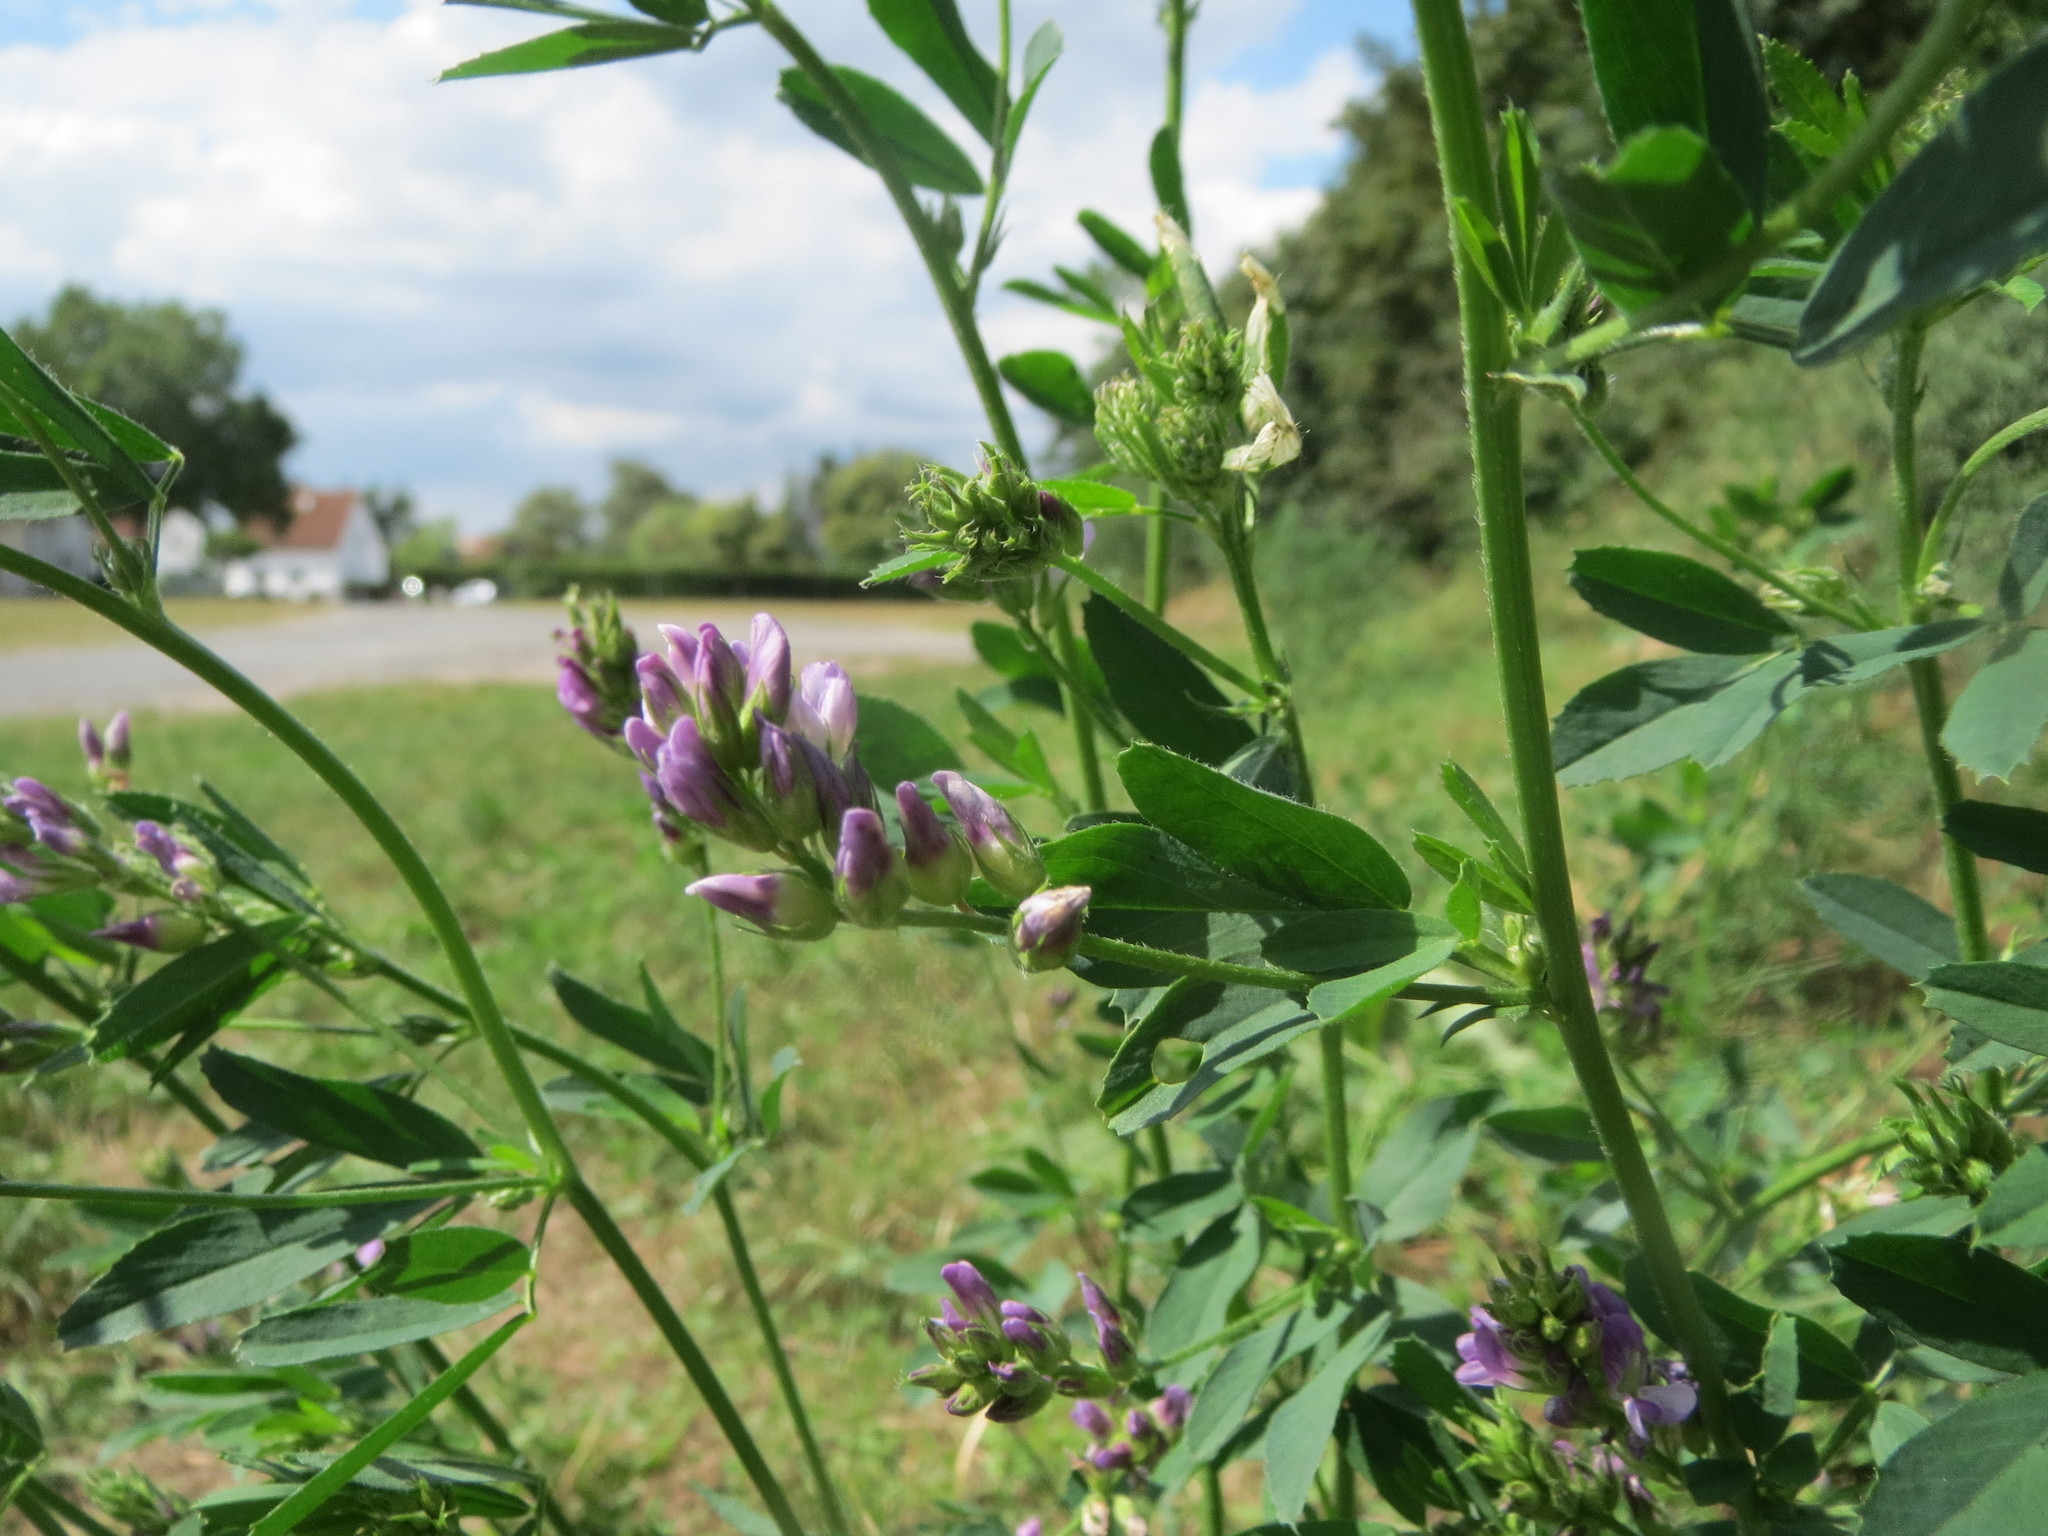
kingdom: Plantae
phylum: Tracheophyta
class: Magnoliopsida
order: Fabales
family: Fabaceae
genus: Medicago
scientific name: Medicago sativa
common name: Alfalfa
